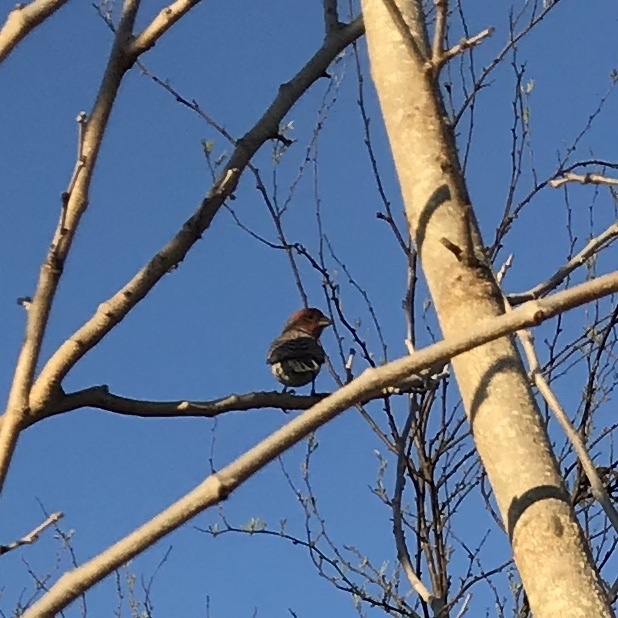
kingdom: Animalia
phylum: Chordata
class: Aves
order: Passeriformes
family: Fringillidae
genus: Haemorhous
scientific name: Haemorhous mexicanus
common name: House finch
